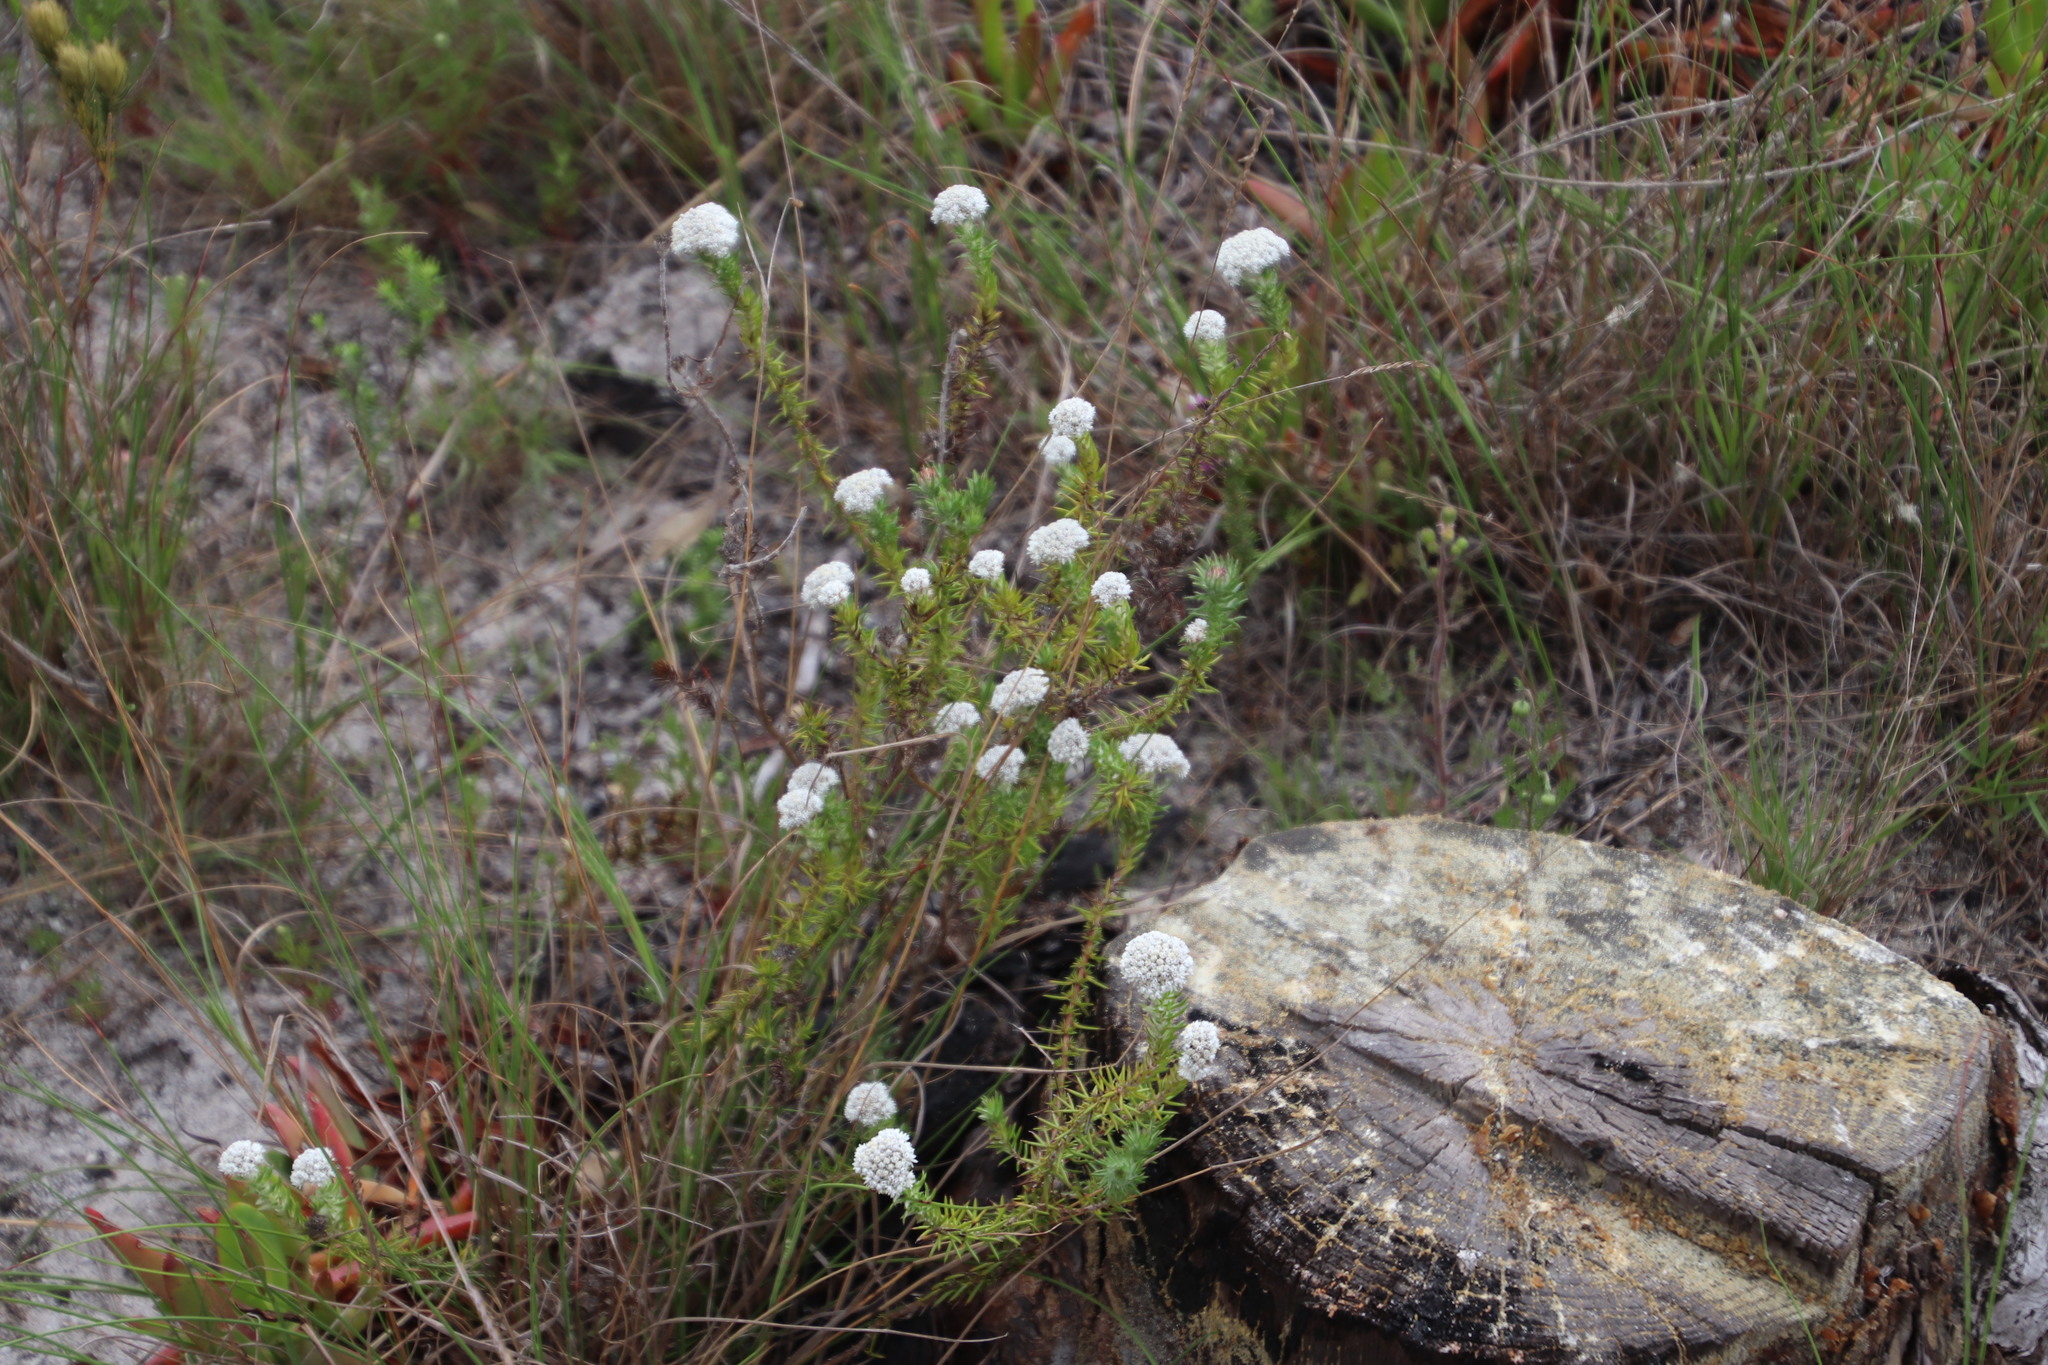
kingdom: Plantae
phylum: Tracheophyta
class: Magnoliopsida
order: Asterales
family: Asteraceae
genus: Metalasia
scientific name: Metalasia pulchella
